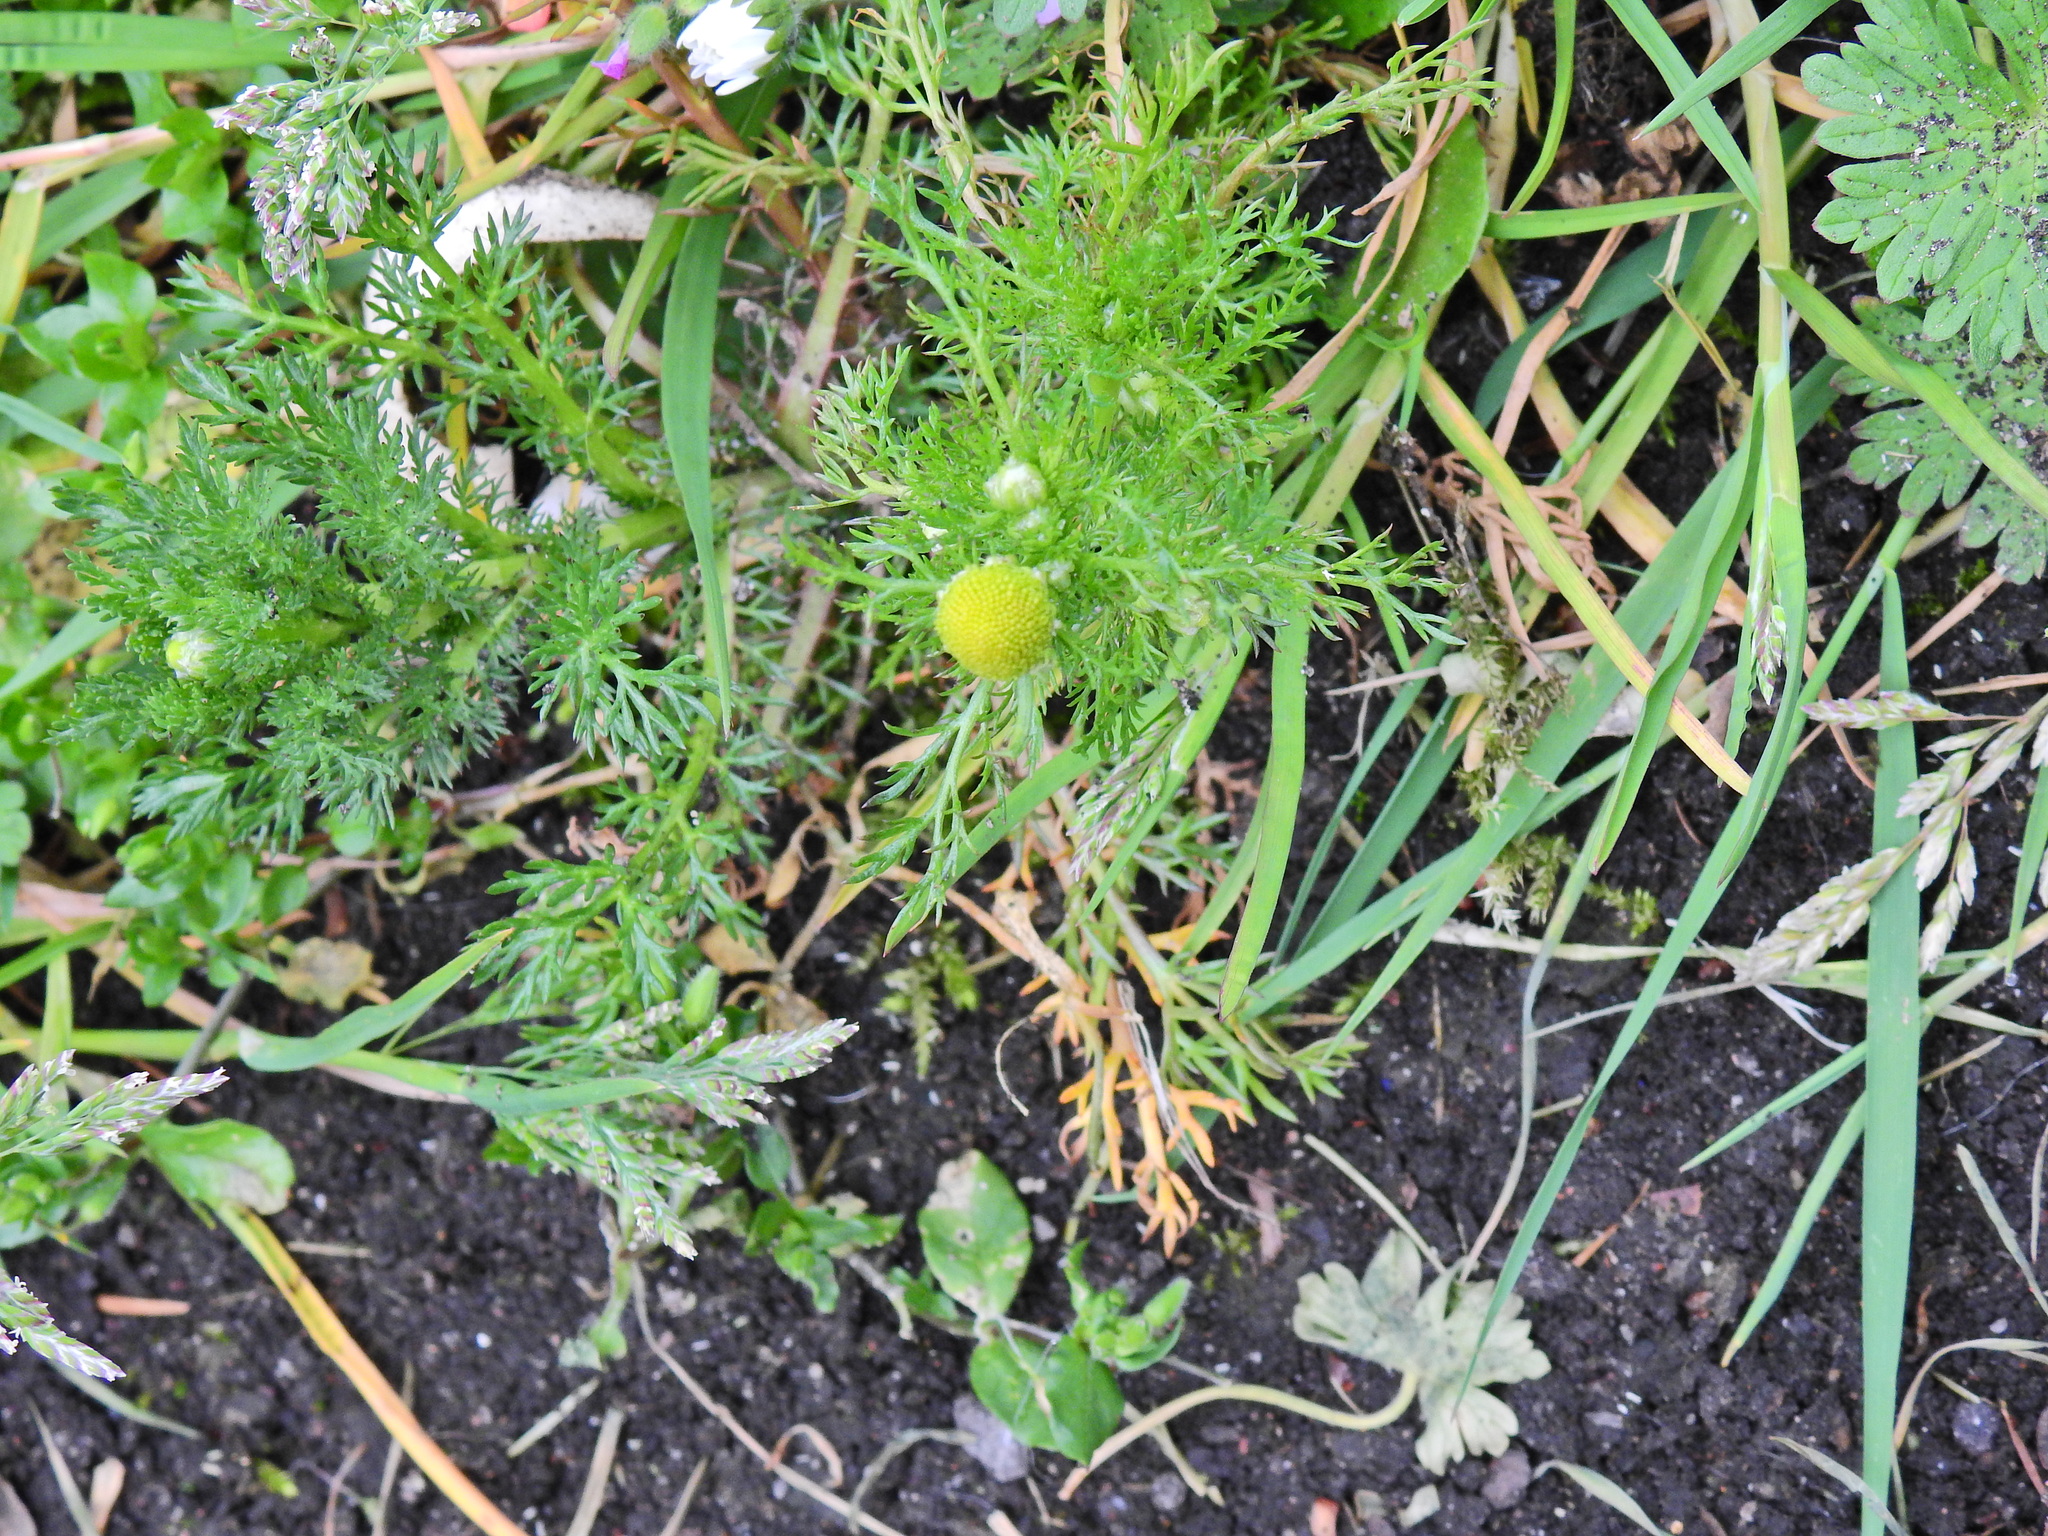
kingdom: Plantae
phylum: Tracheophyta
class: Magnoliopsida
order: Asterales
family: Asteraceae
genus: Matricaria
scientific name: Matricaria discoidea
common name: Disc mayweed
